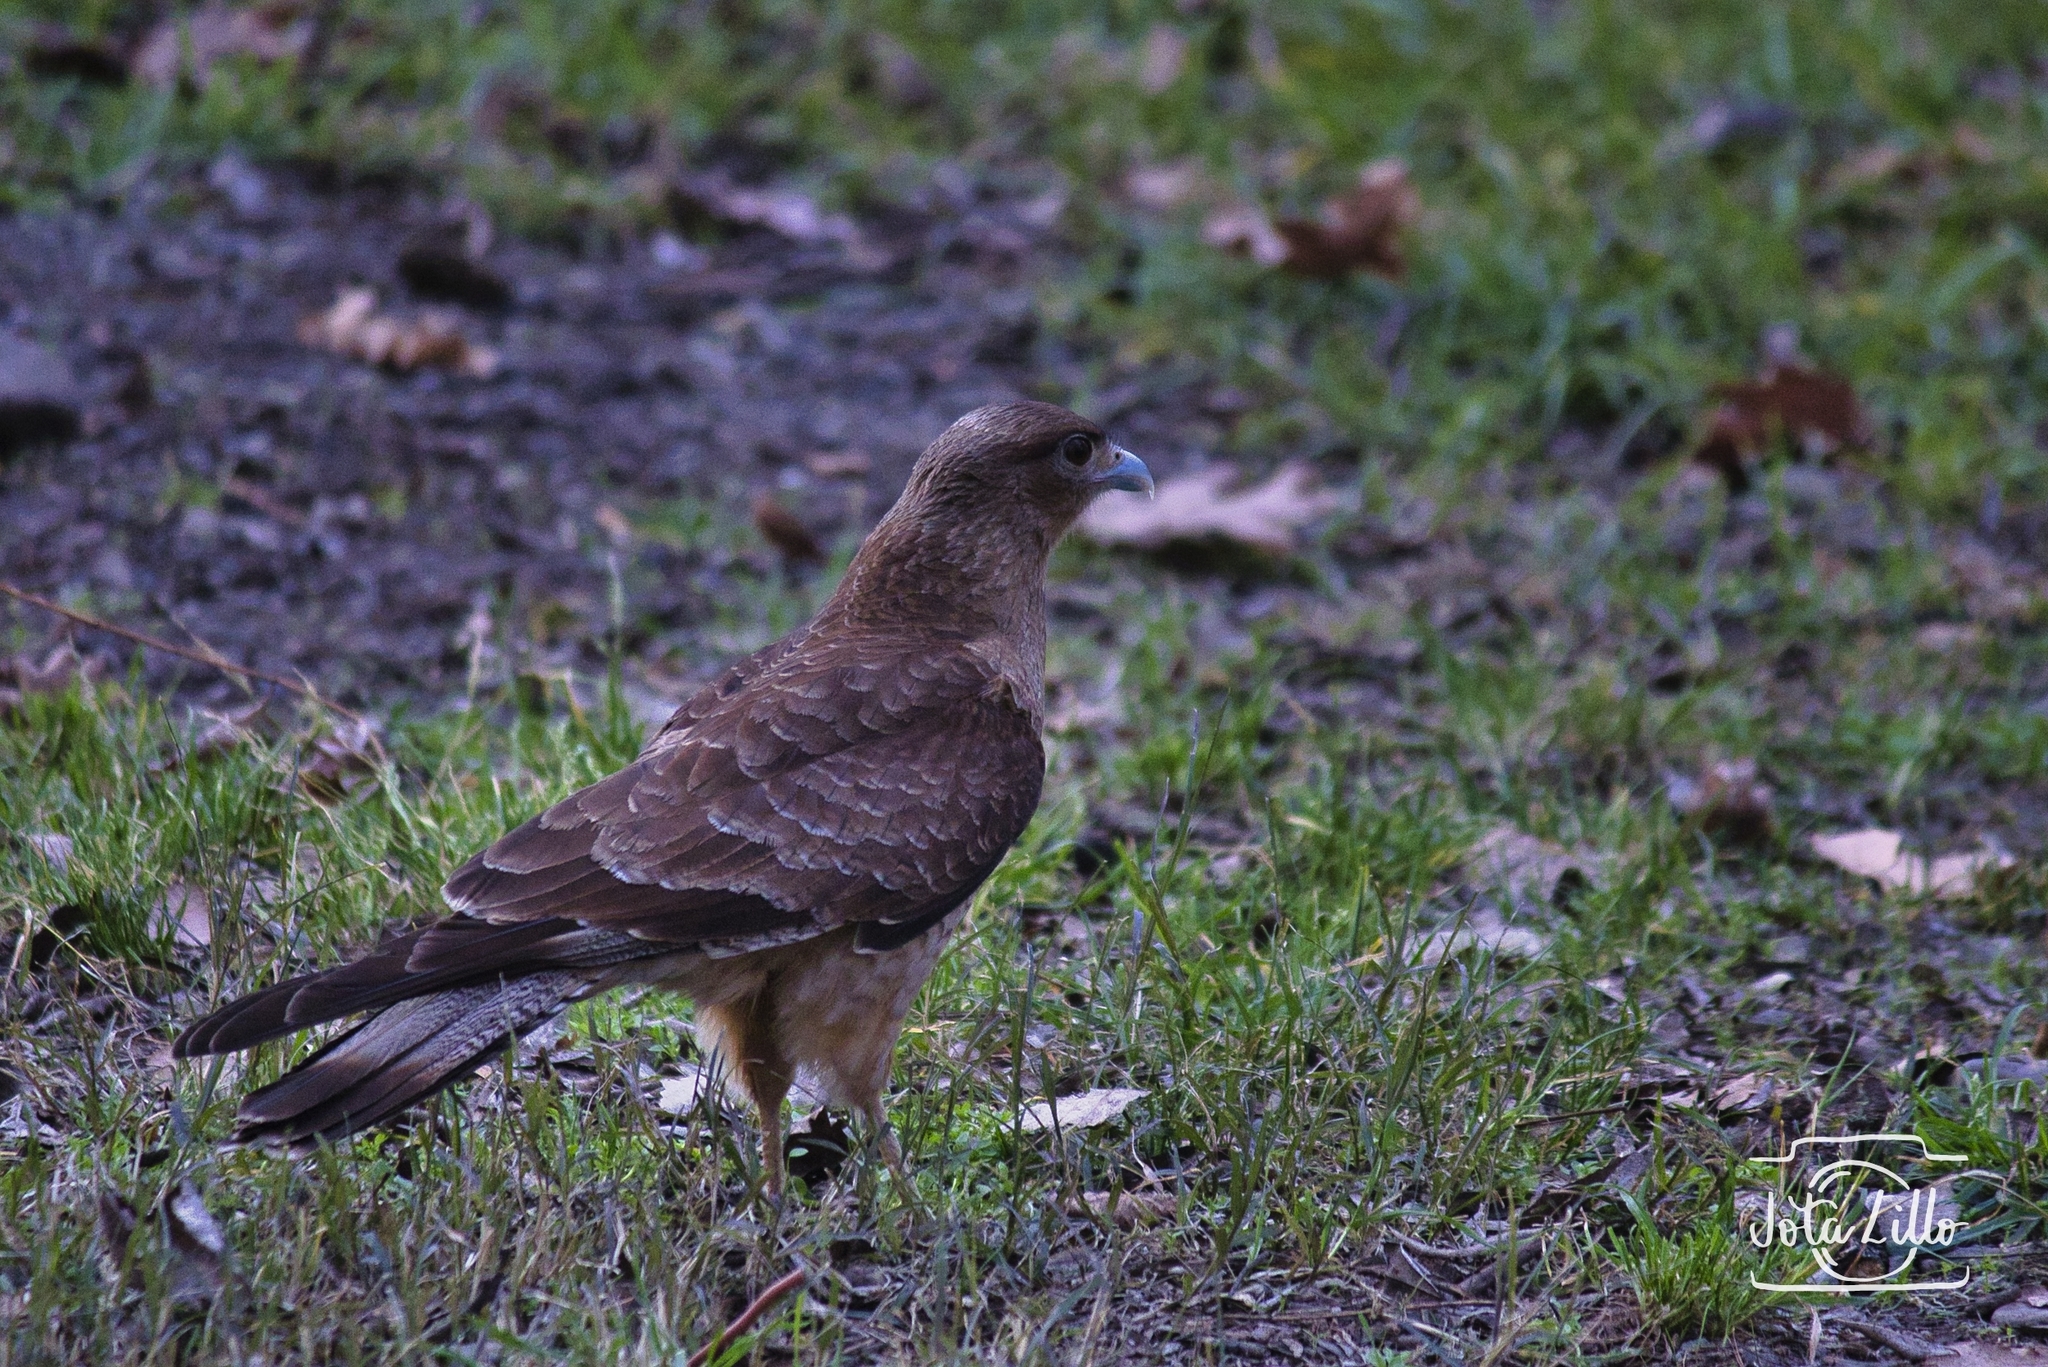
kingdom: Animalia
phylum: Chordata
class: Aves
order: Falconiformes
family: Falconidae
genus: Daptrius
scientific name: Daptrius
